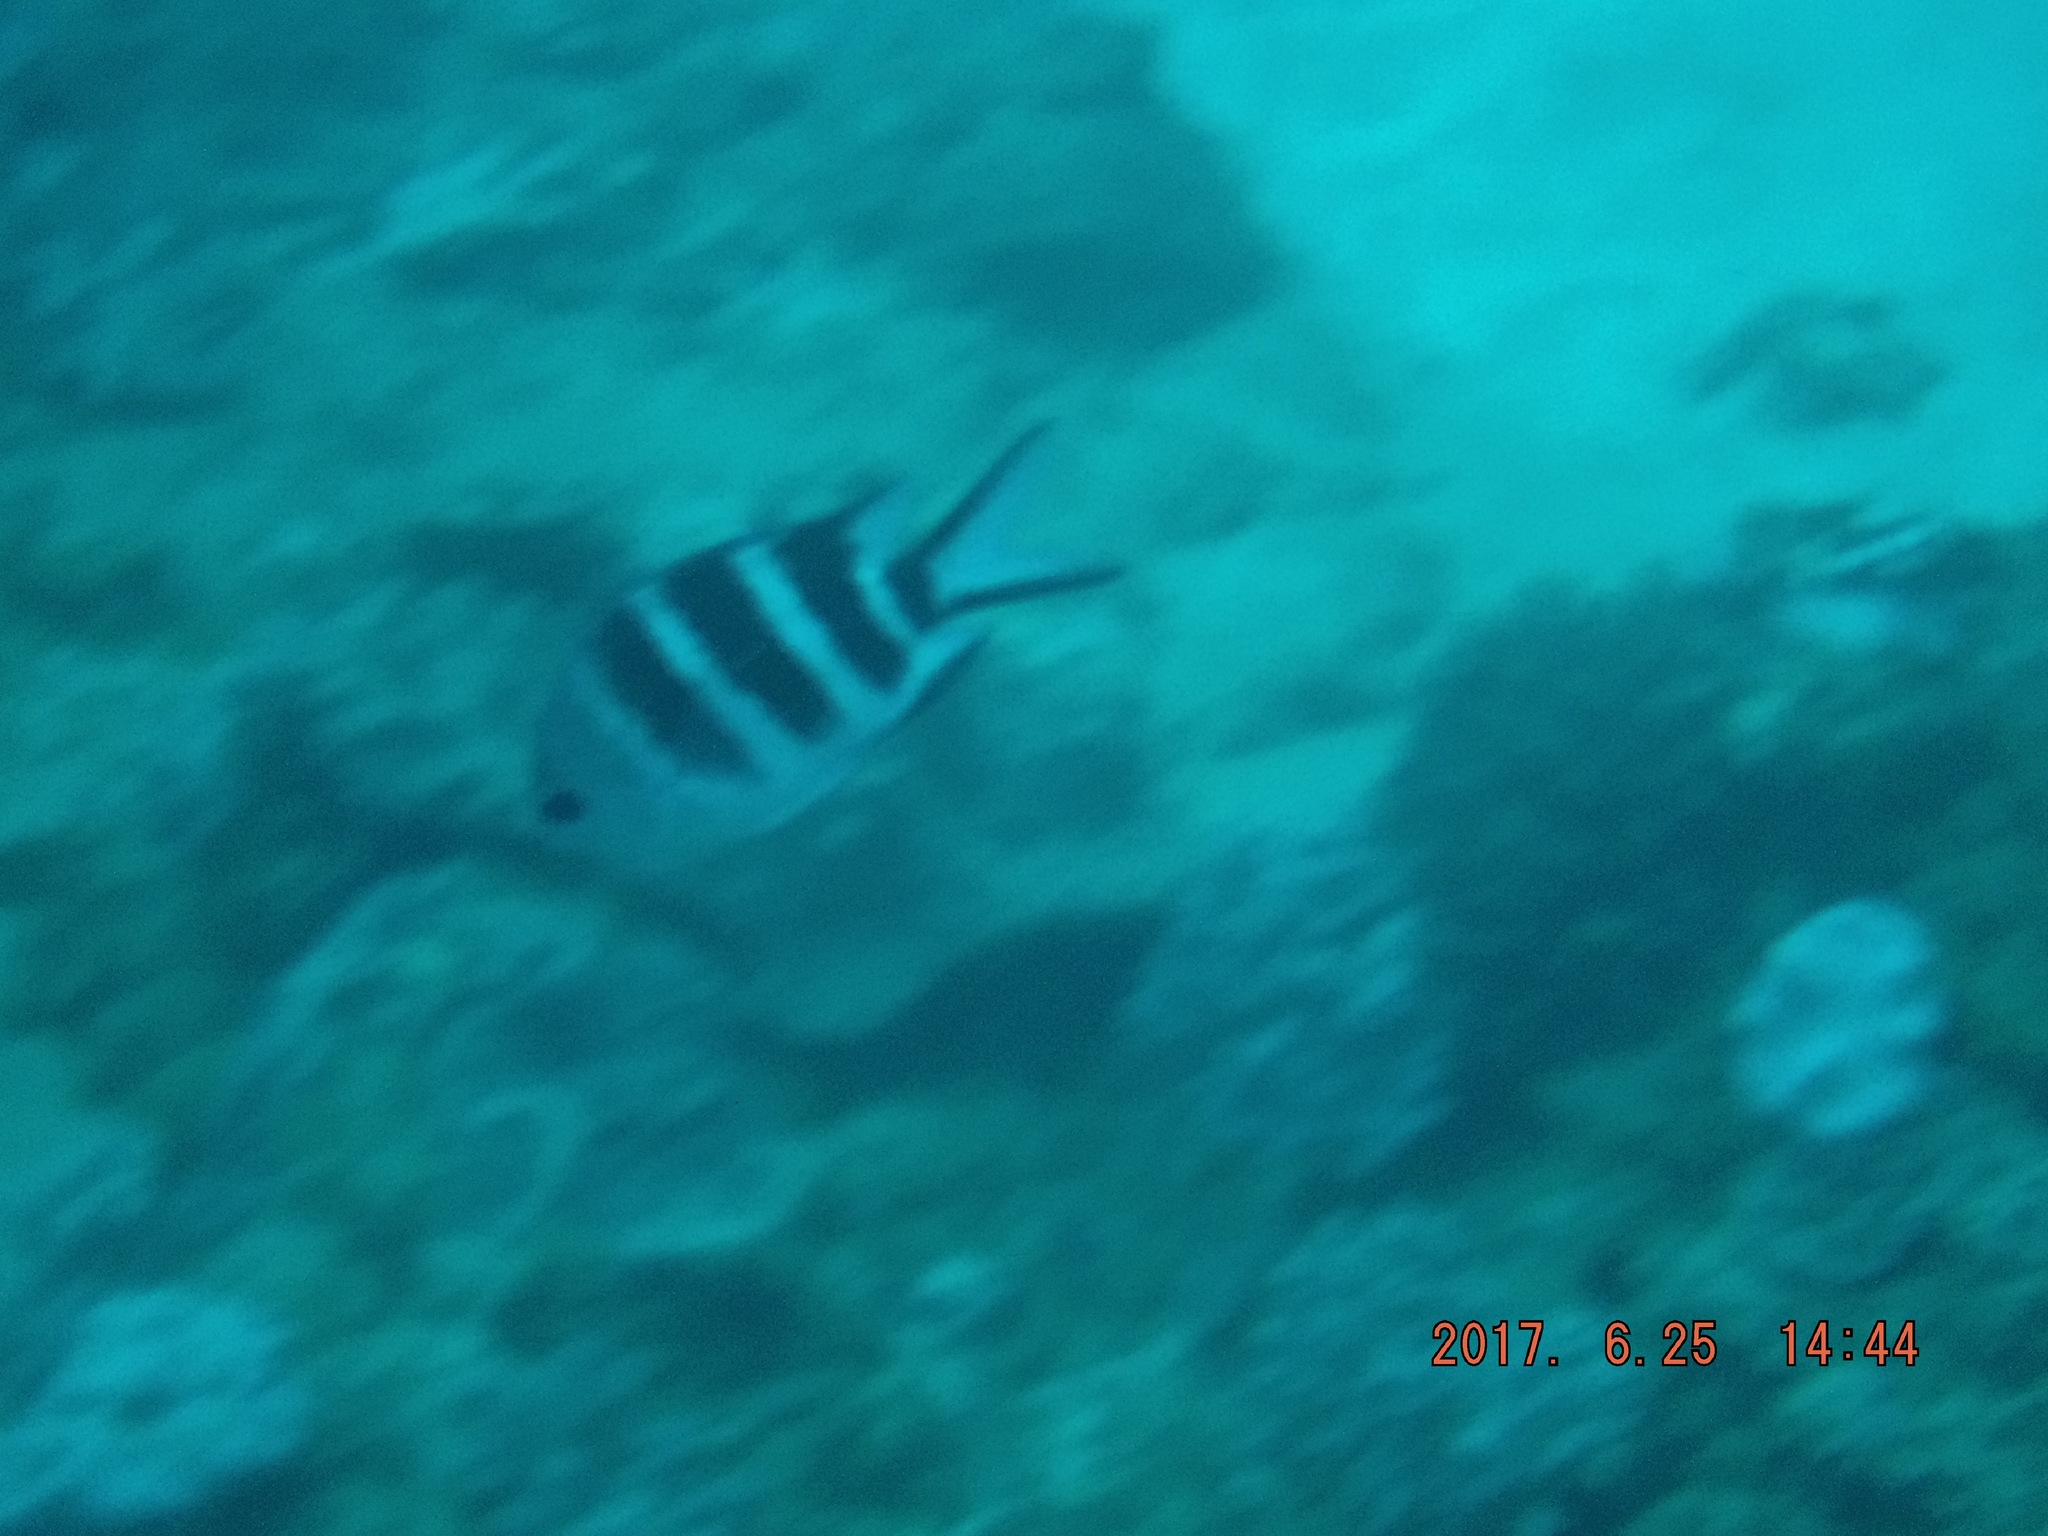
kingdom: Animalia
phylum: Chordata
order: Perciformes
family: Pomacentridae
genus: Abudefduf
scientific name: Abudefduf natalensis
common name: Natal sergeant
